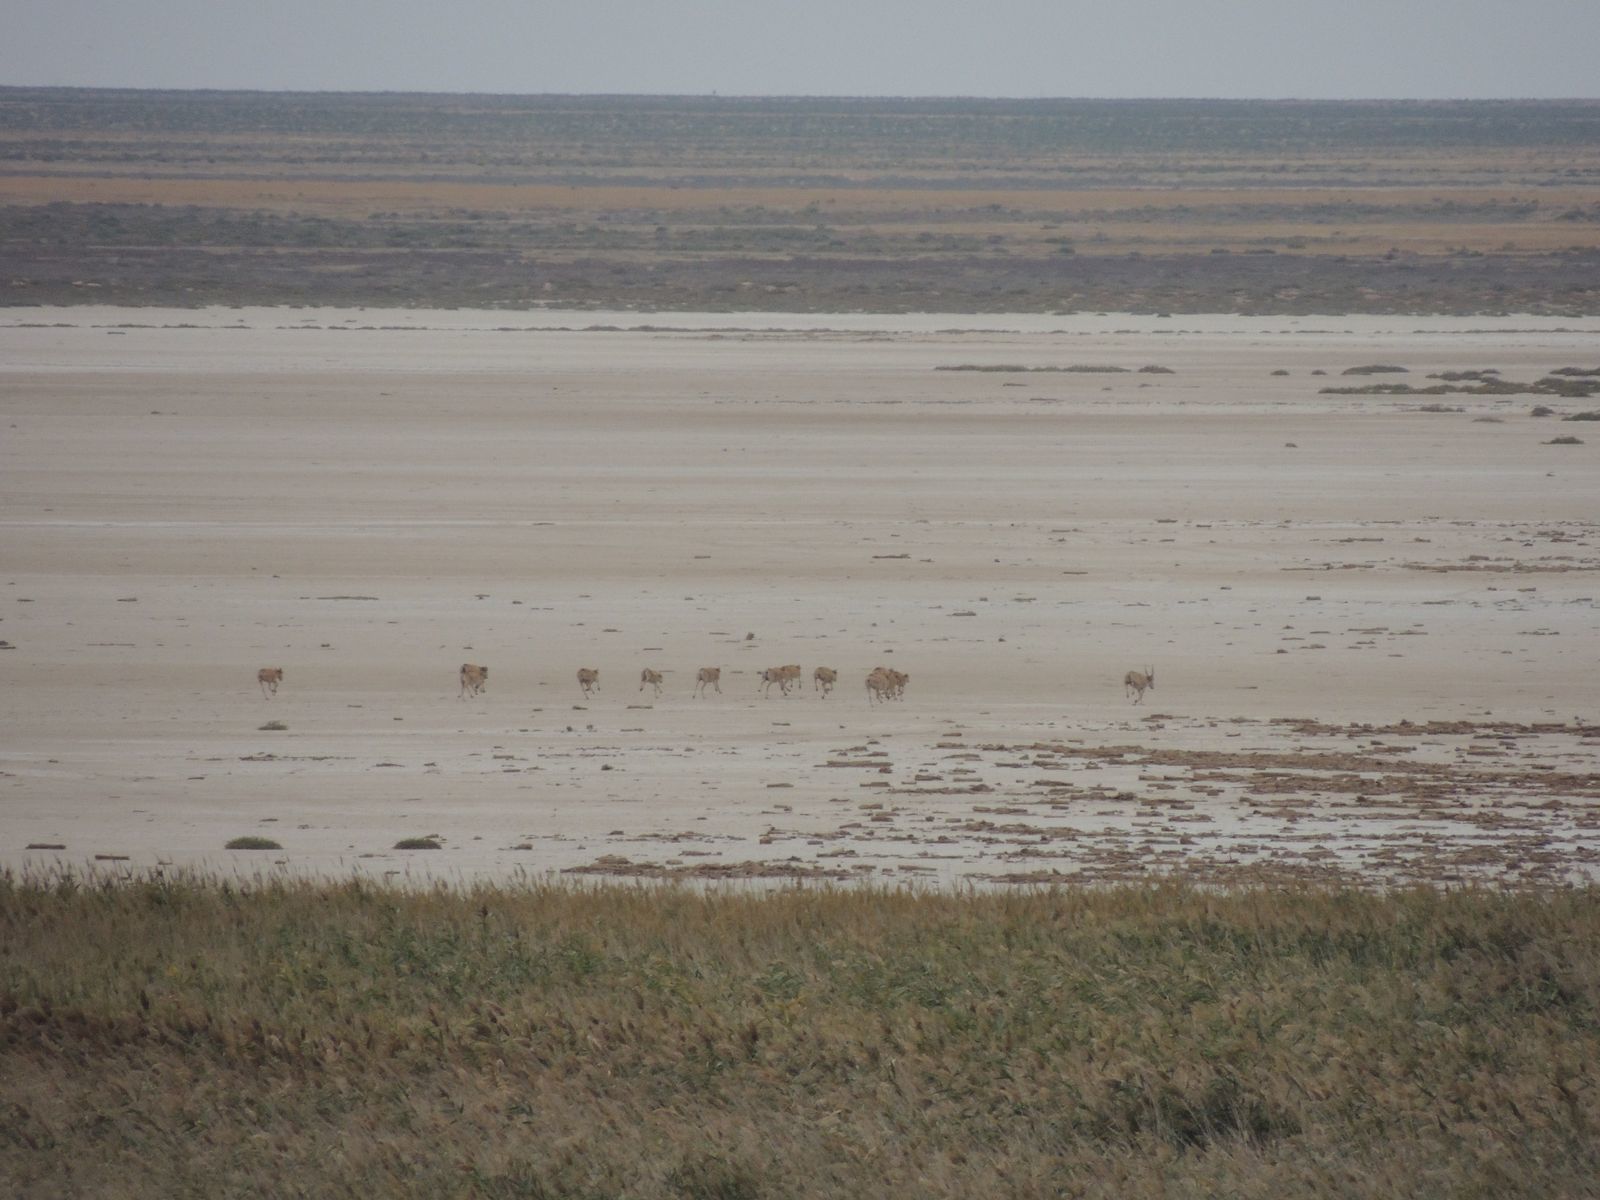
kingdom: Animalia
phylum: Chordata
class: Mammalia
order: Artiodactyla
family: Bovidae
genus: Saiga
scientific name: Saiga tatarica
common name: Saiga
